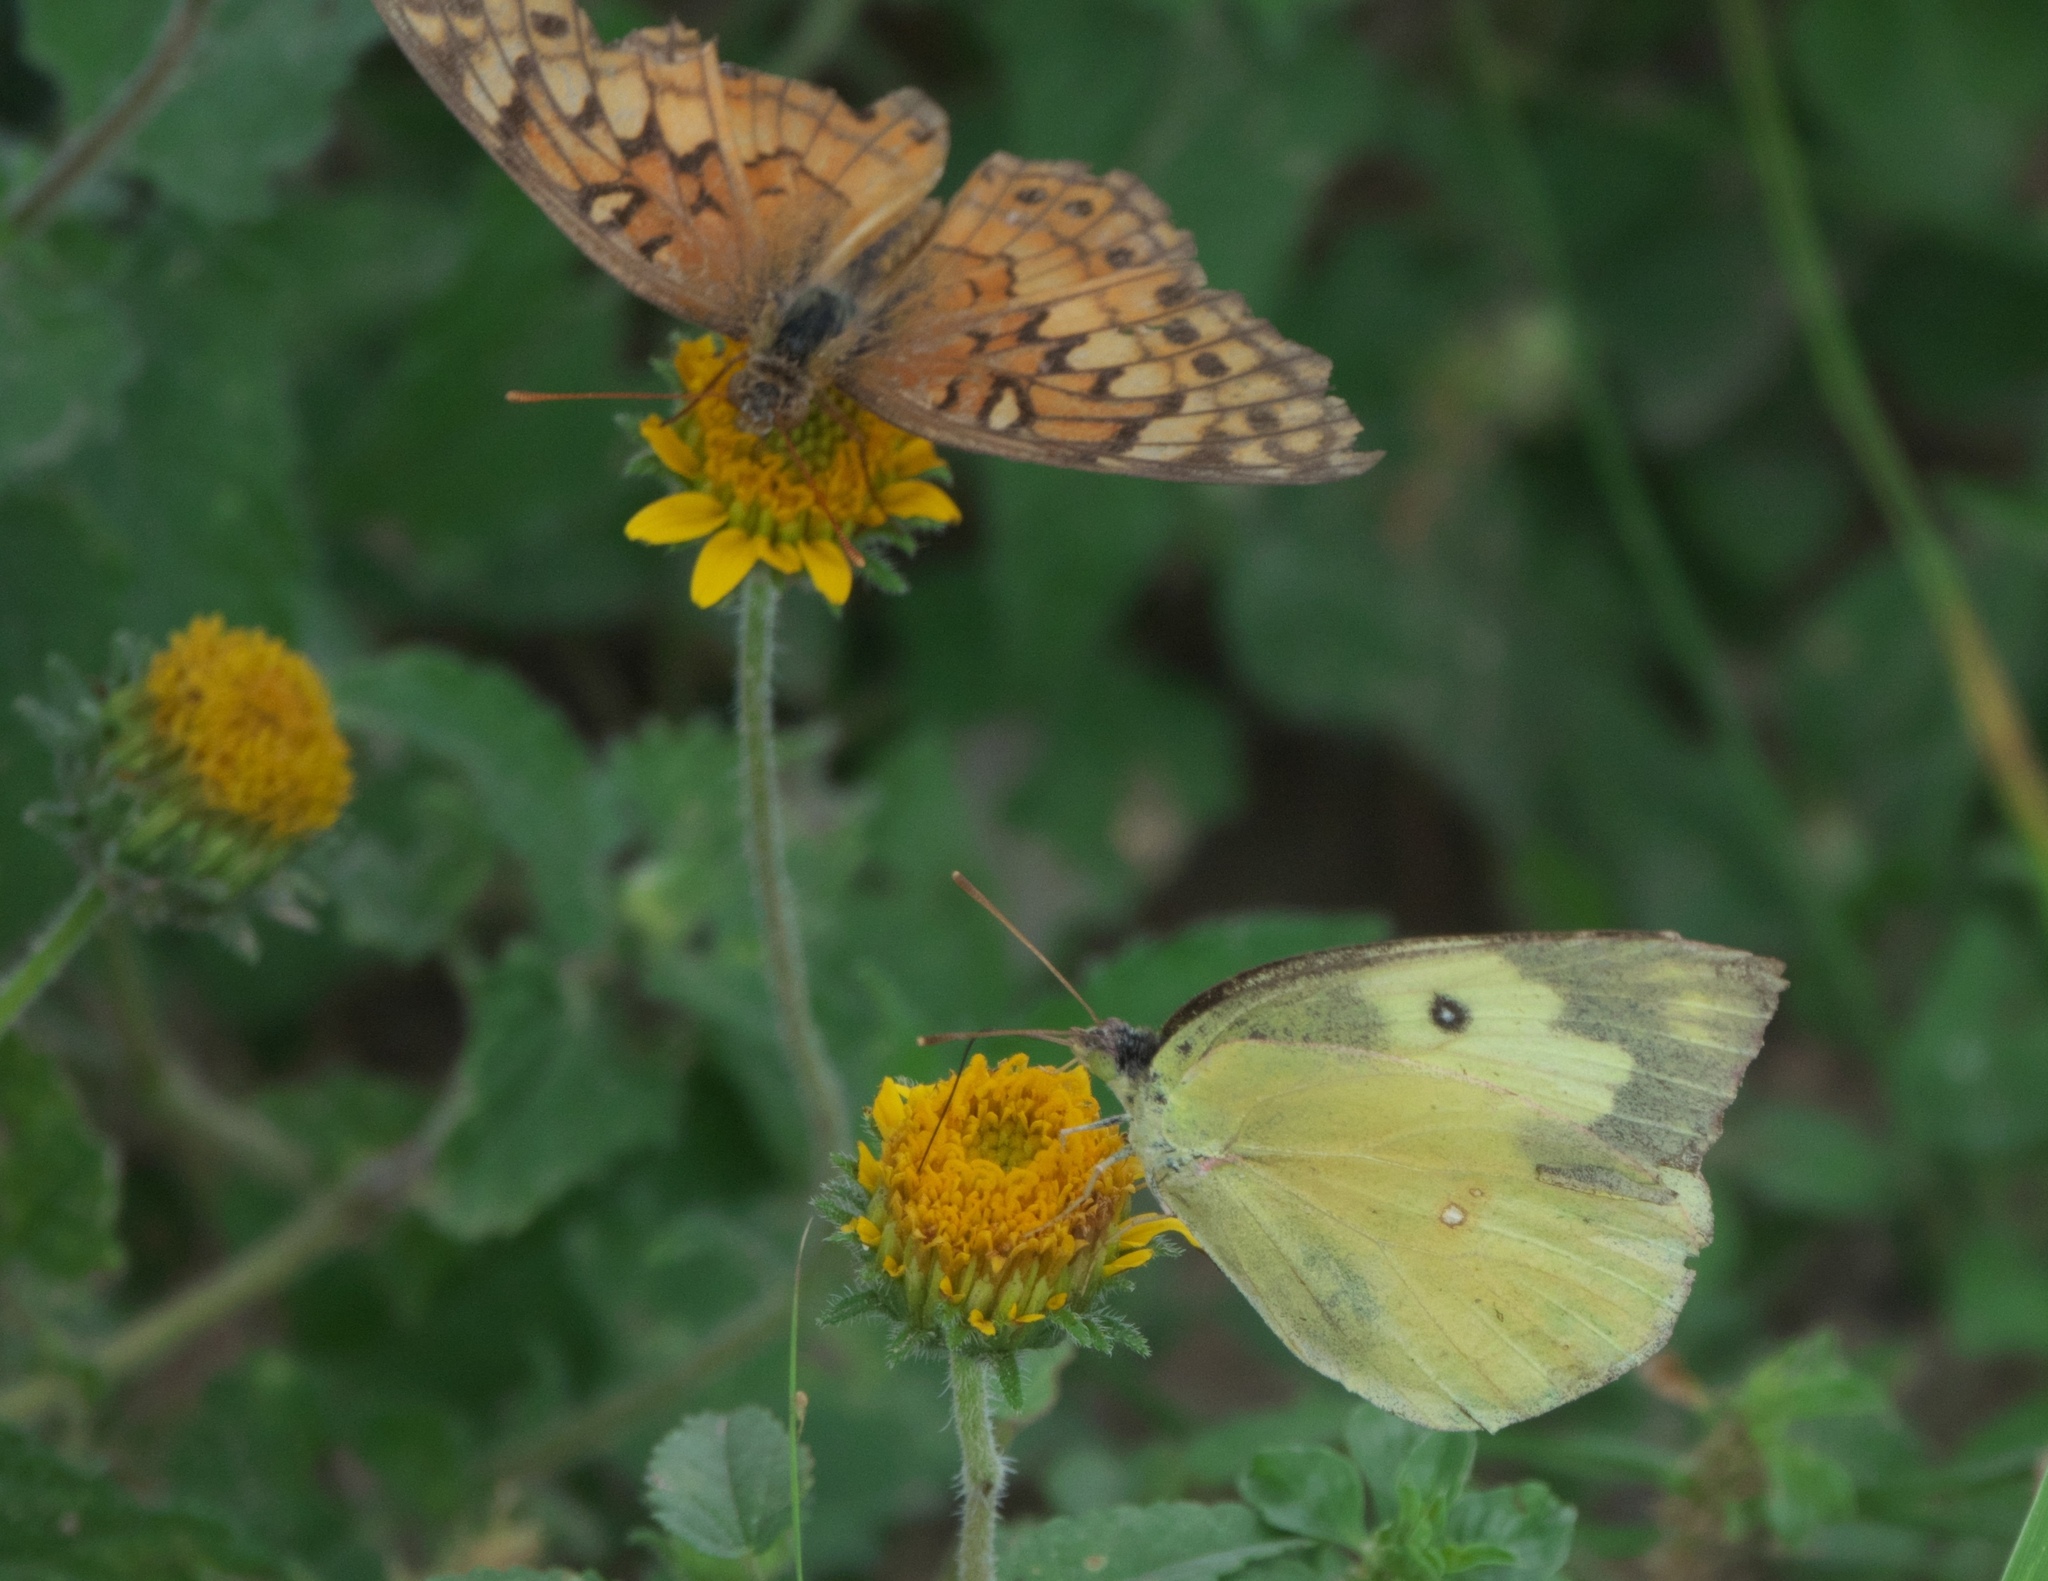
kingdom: Animalia
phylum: Arthropoda
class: Insecta
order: Lepidoptera
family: Pieridae
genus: Zerene
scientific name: Zerene cesonia
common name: Southern dogface
